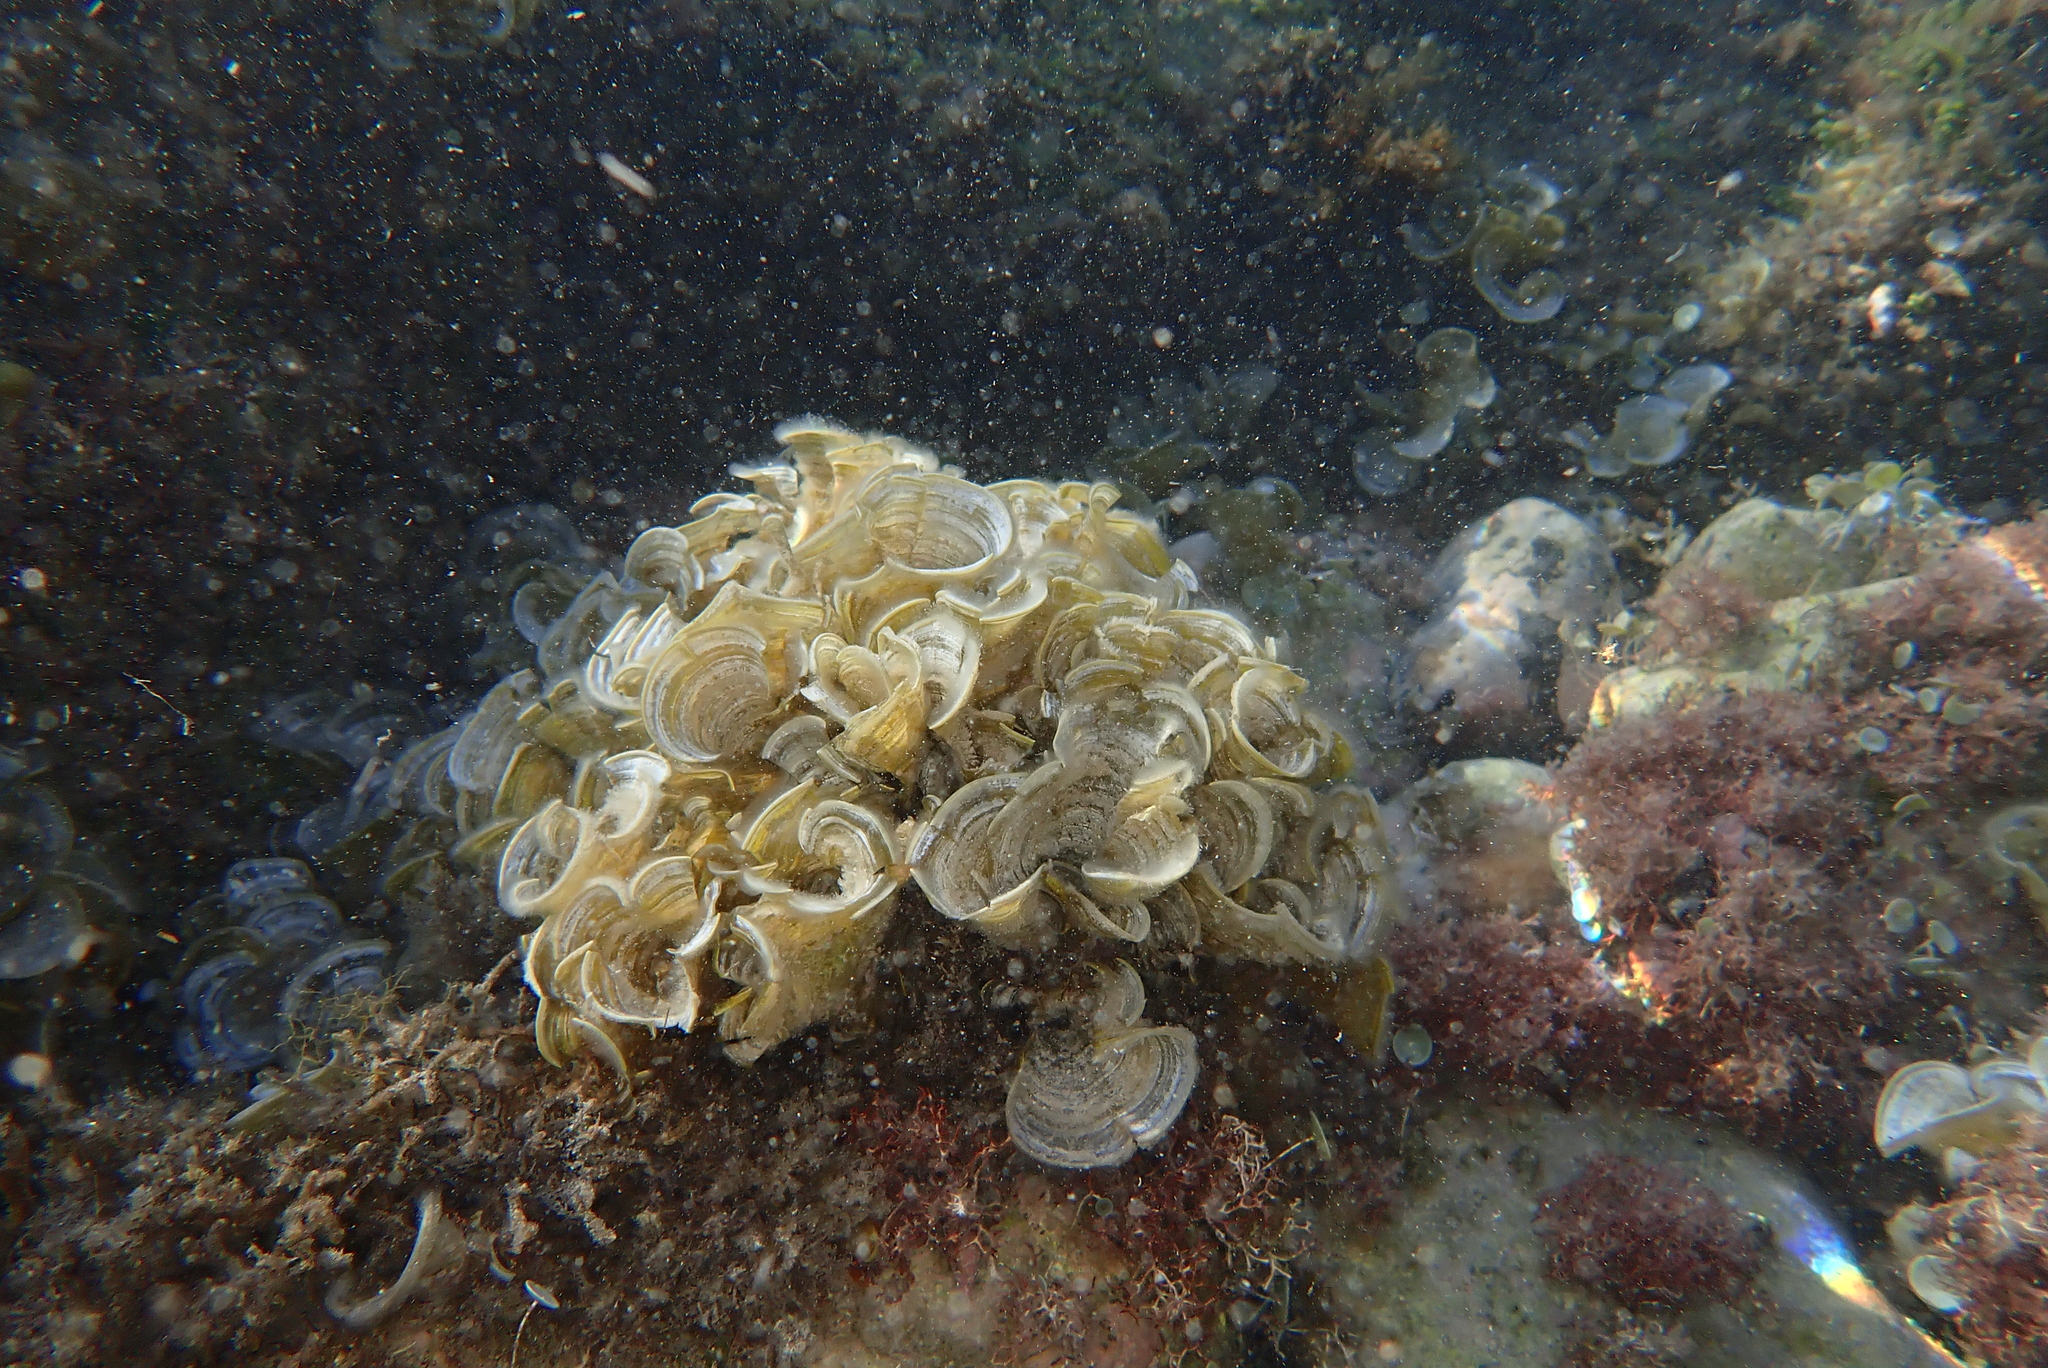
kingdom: Chromista
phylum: Ochrophyta
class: Phaeophyceae
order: Dictyotales
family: Dictyotaceae
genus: Padina
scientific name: Padina pavonica
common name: Turkey feather alga
